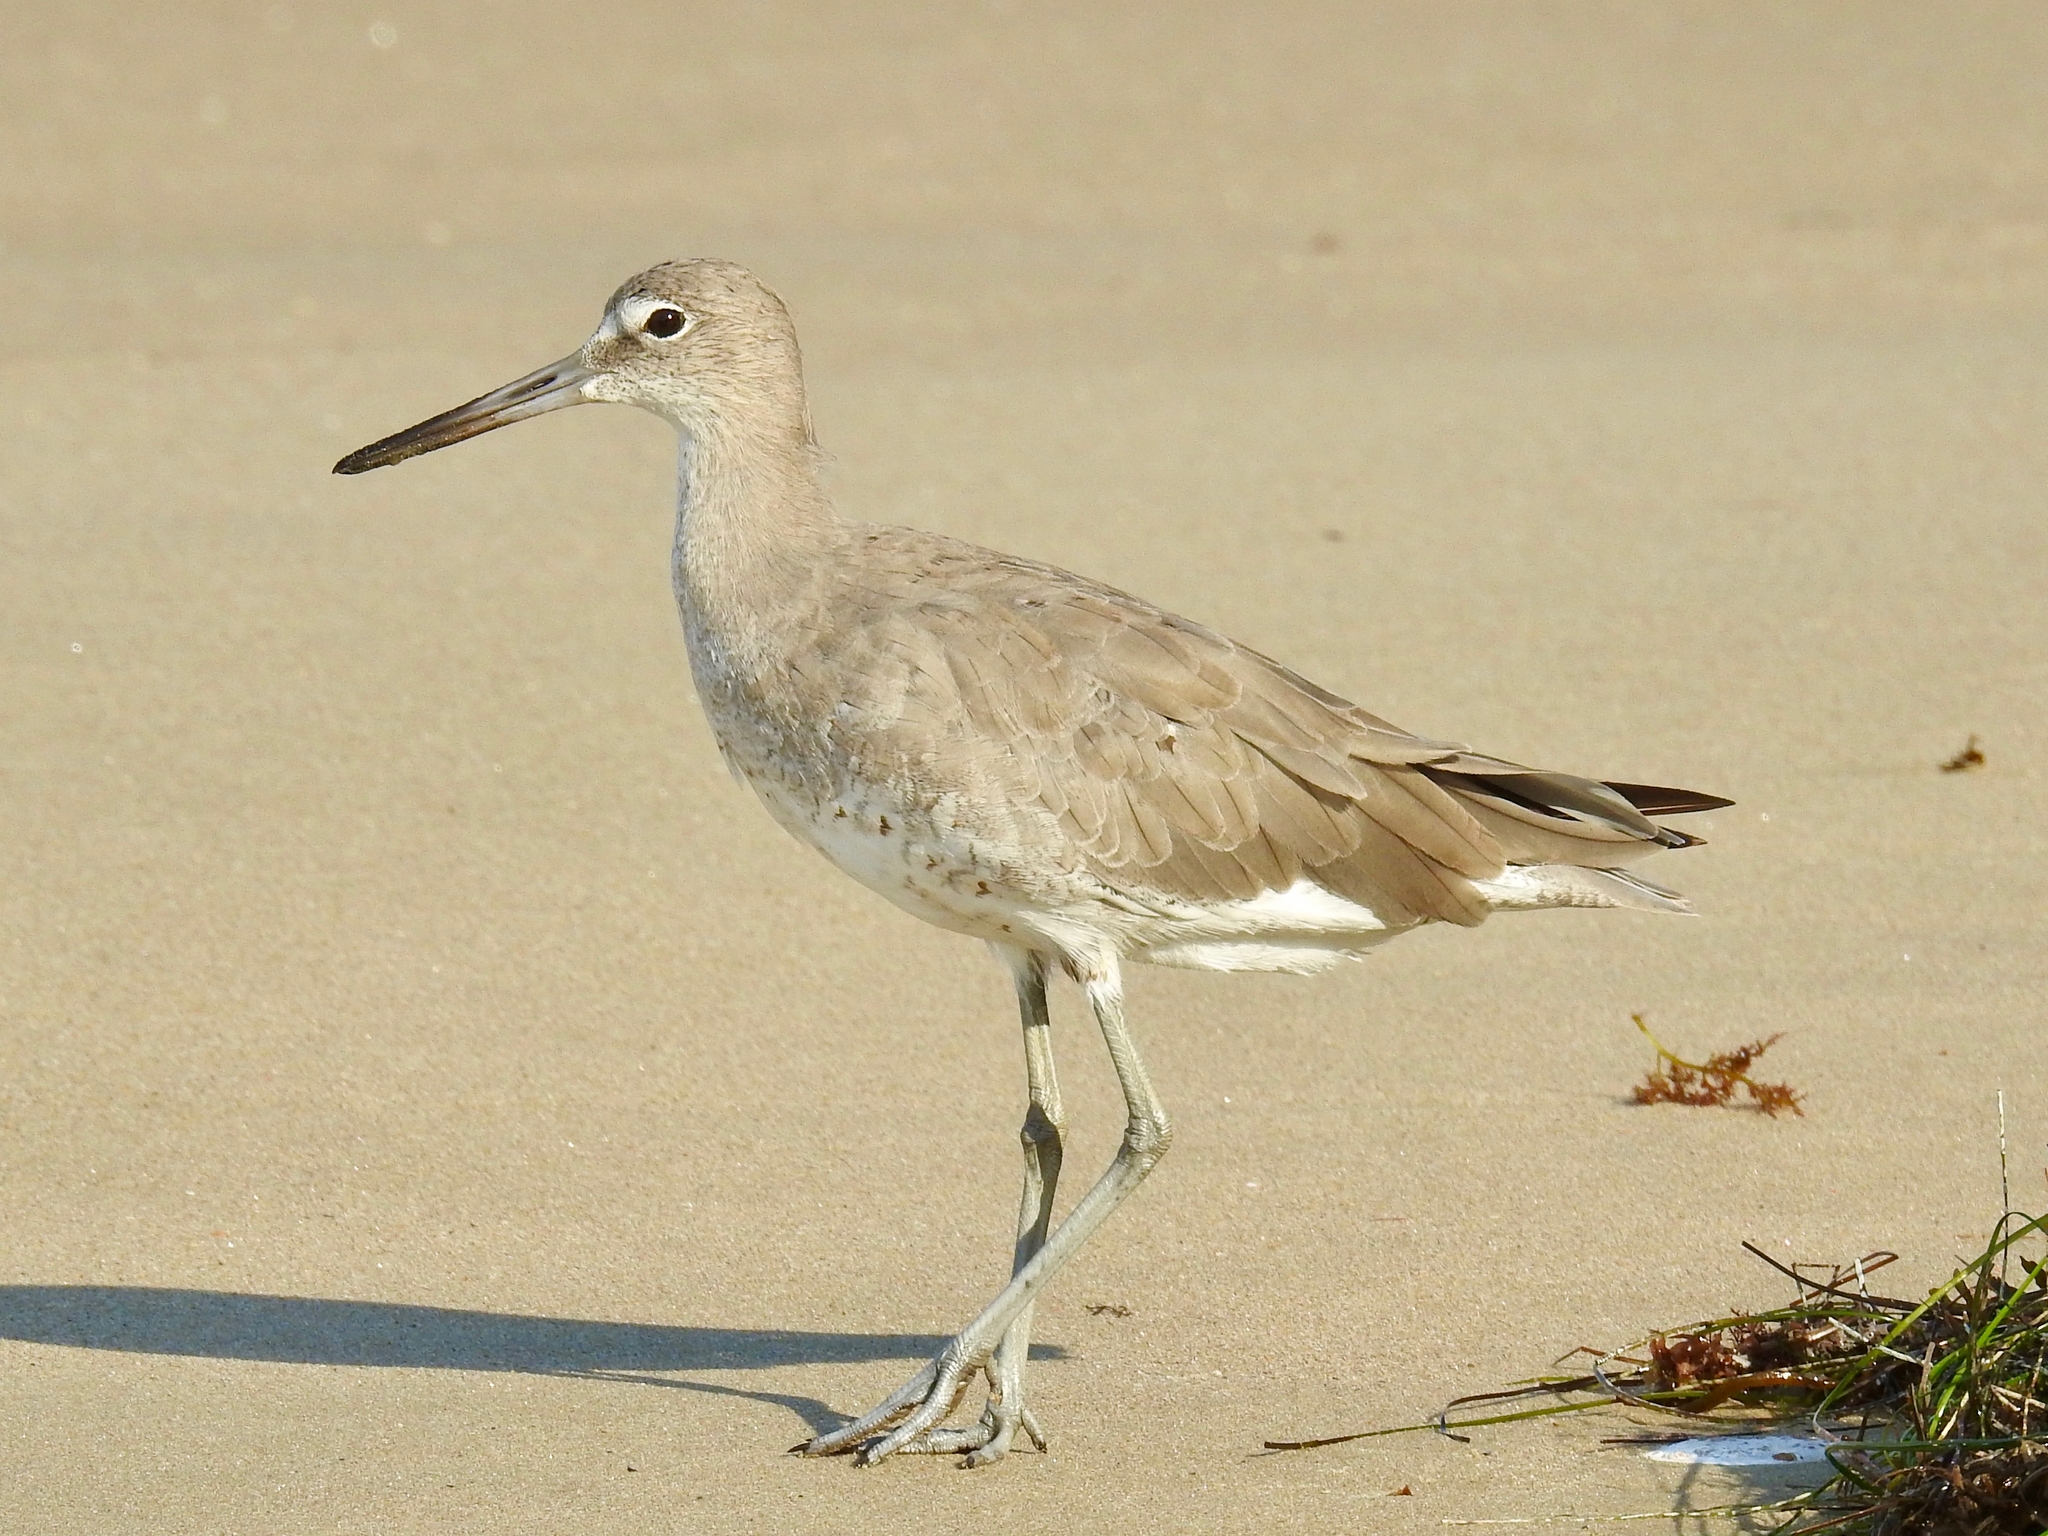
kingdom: Animalia
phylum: Chordata
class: Aves
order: Charadriiformes
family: Scolopacidae
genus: Tringa
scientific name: Tringa semipalmata
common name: Willet
